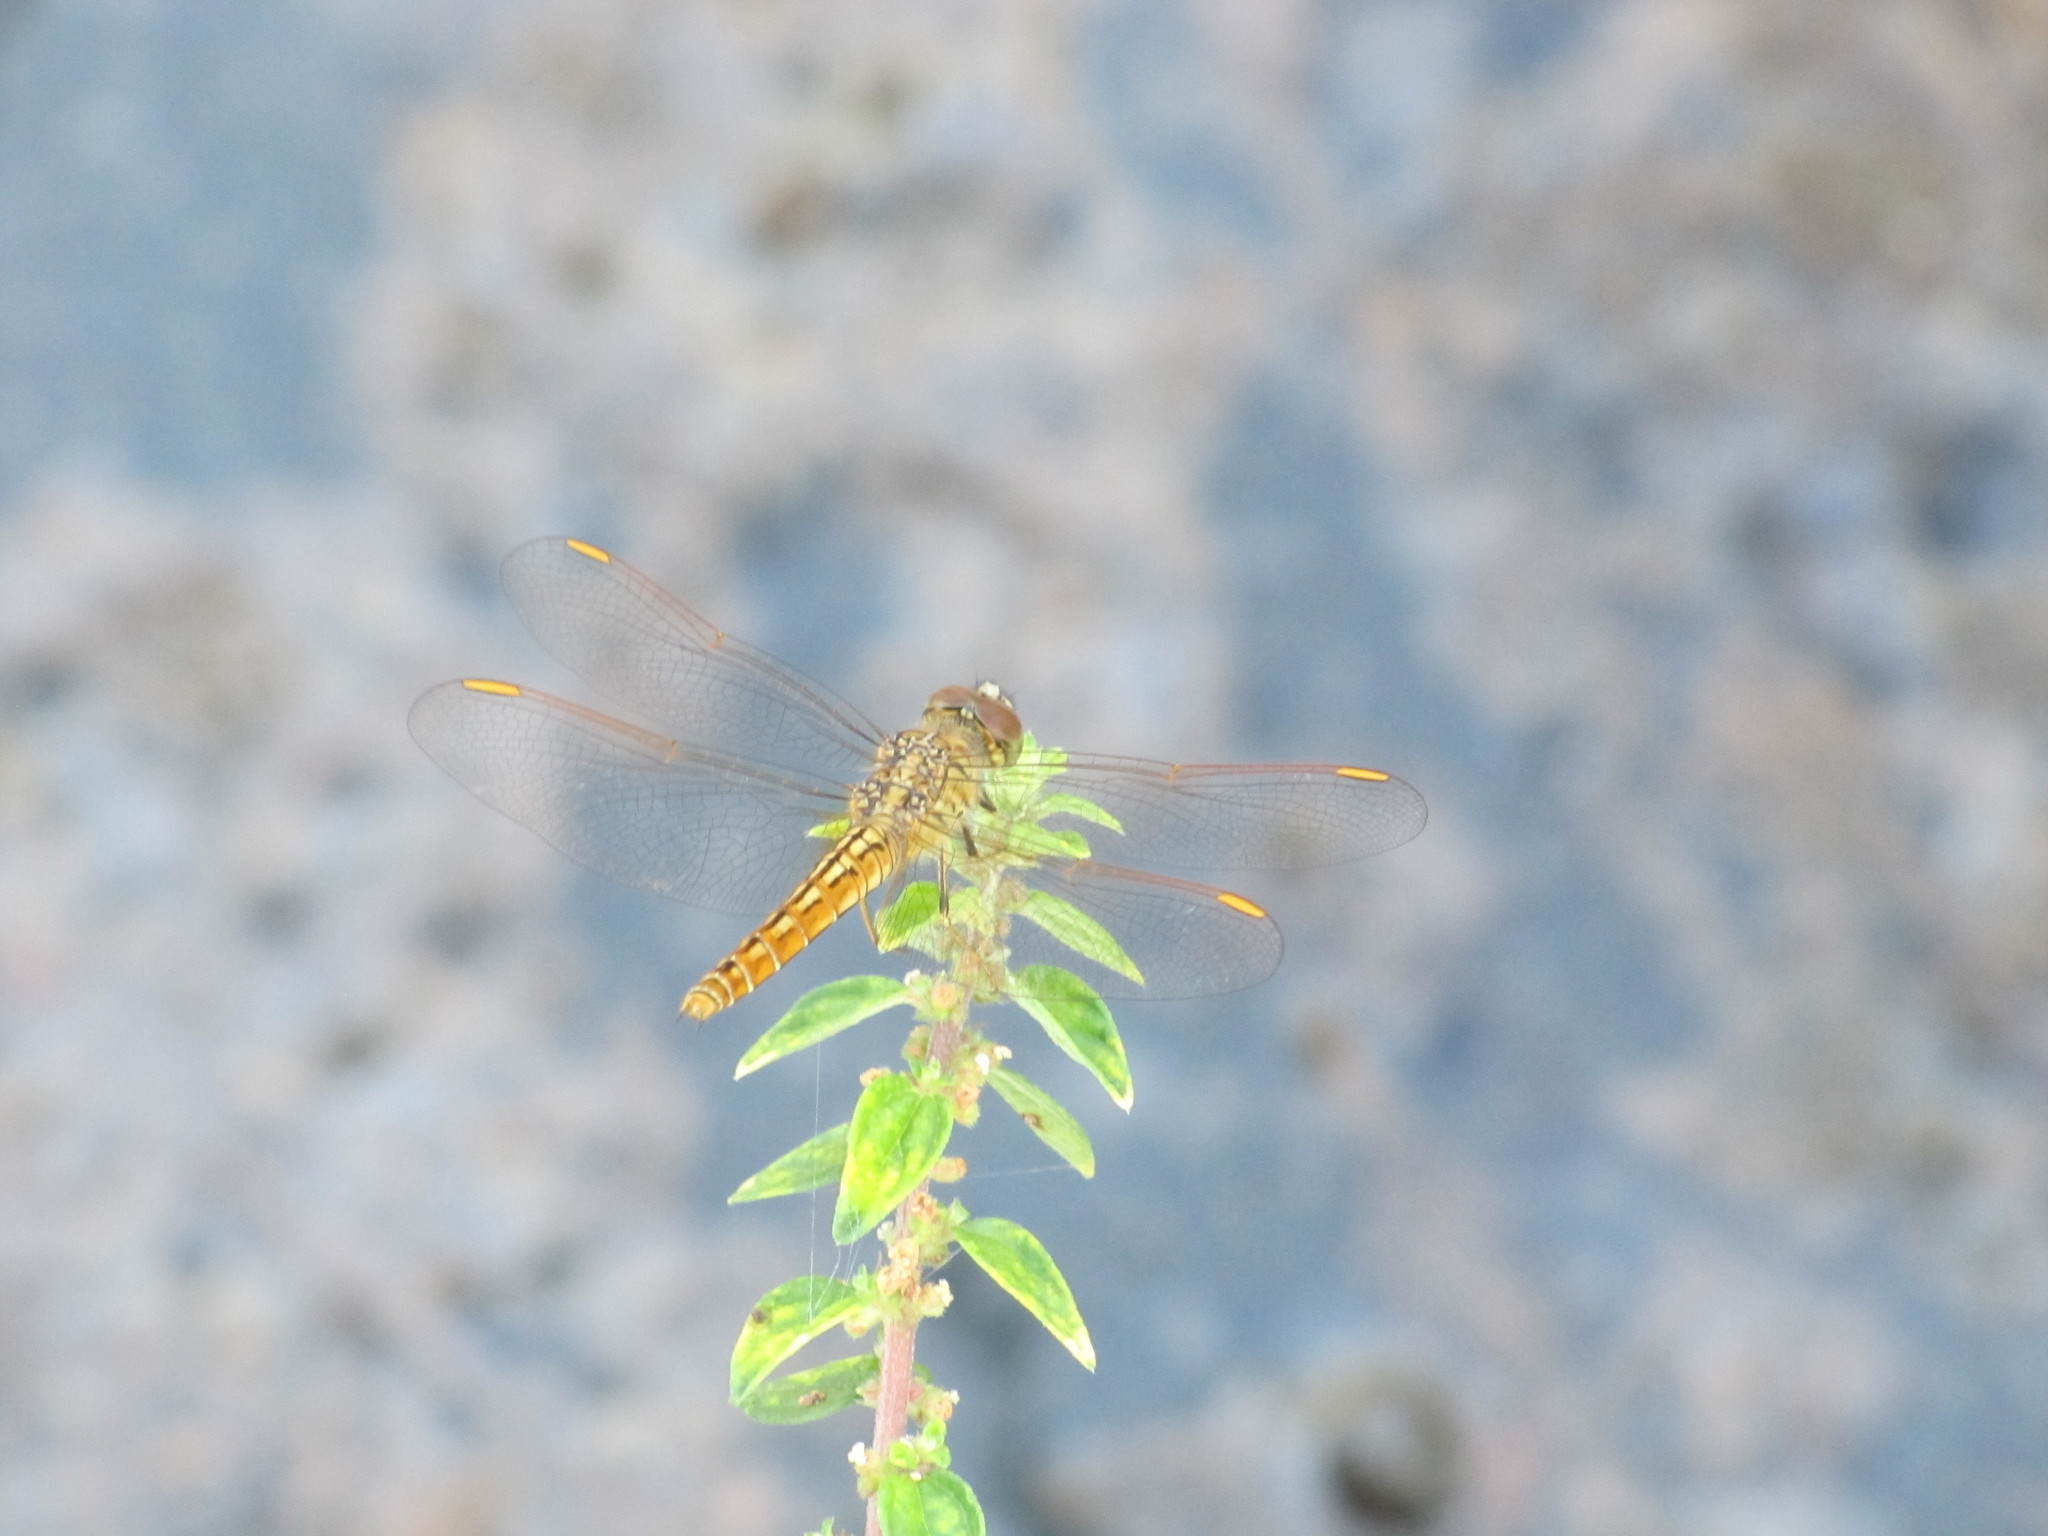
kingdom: Animalia
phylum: Arthropoda
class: Insecta
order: Odonata
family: Libellulidae
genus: Brachythemis
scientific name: Brachythemis contaminata
